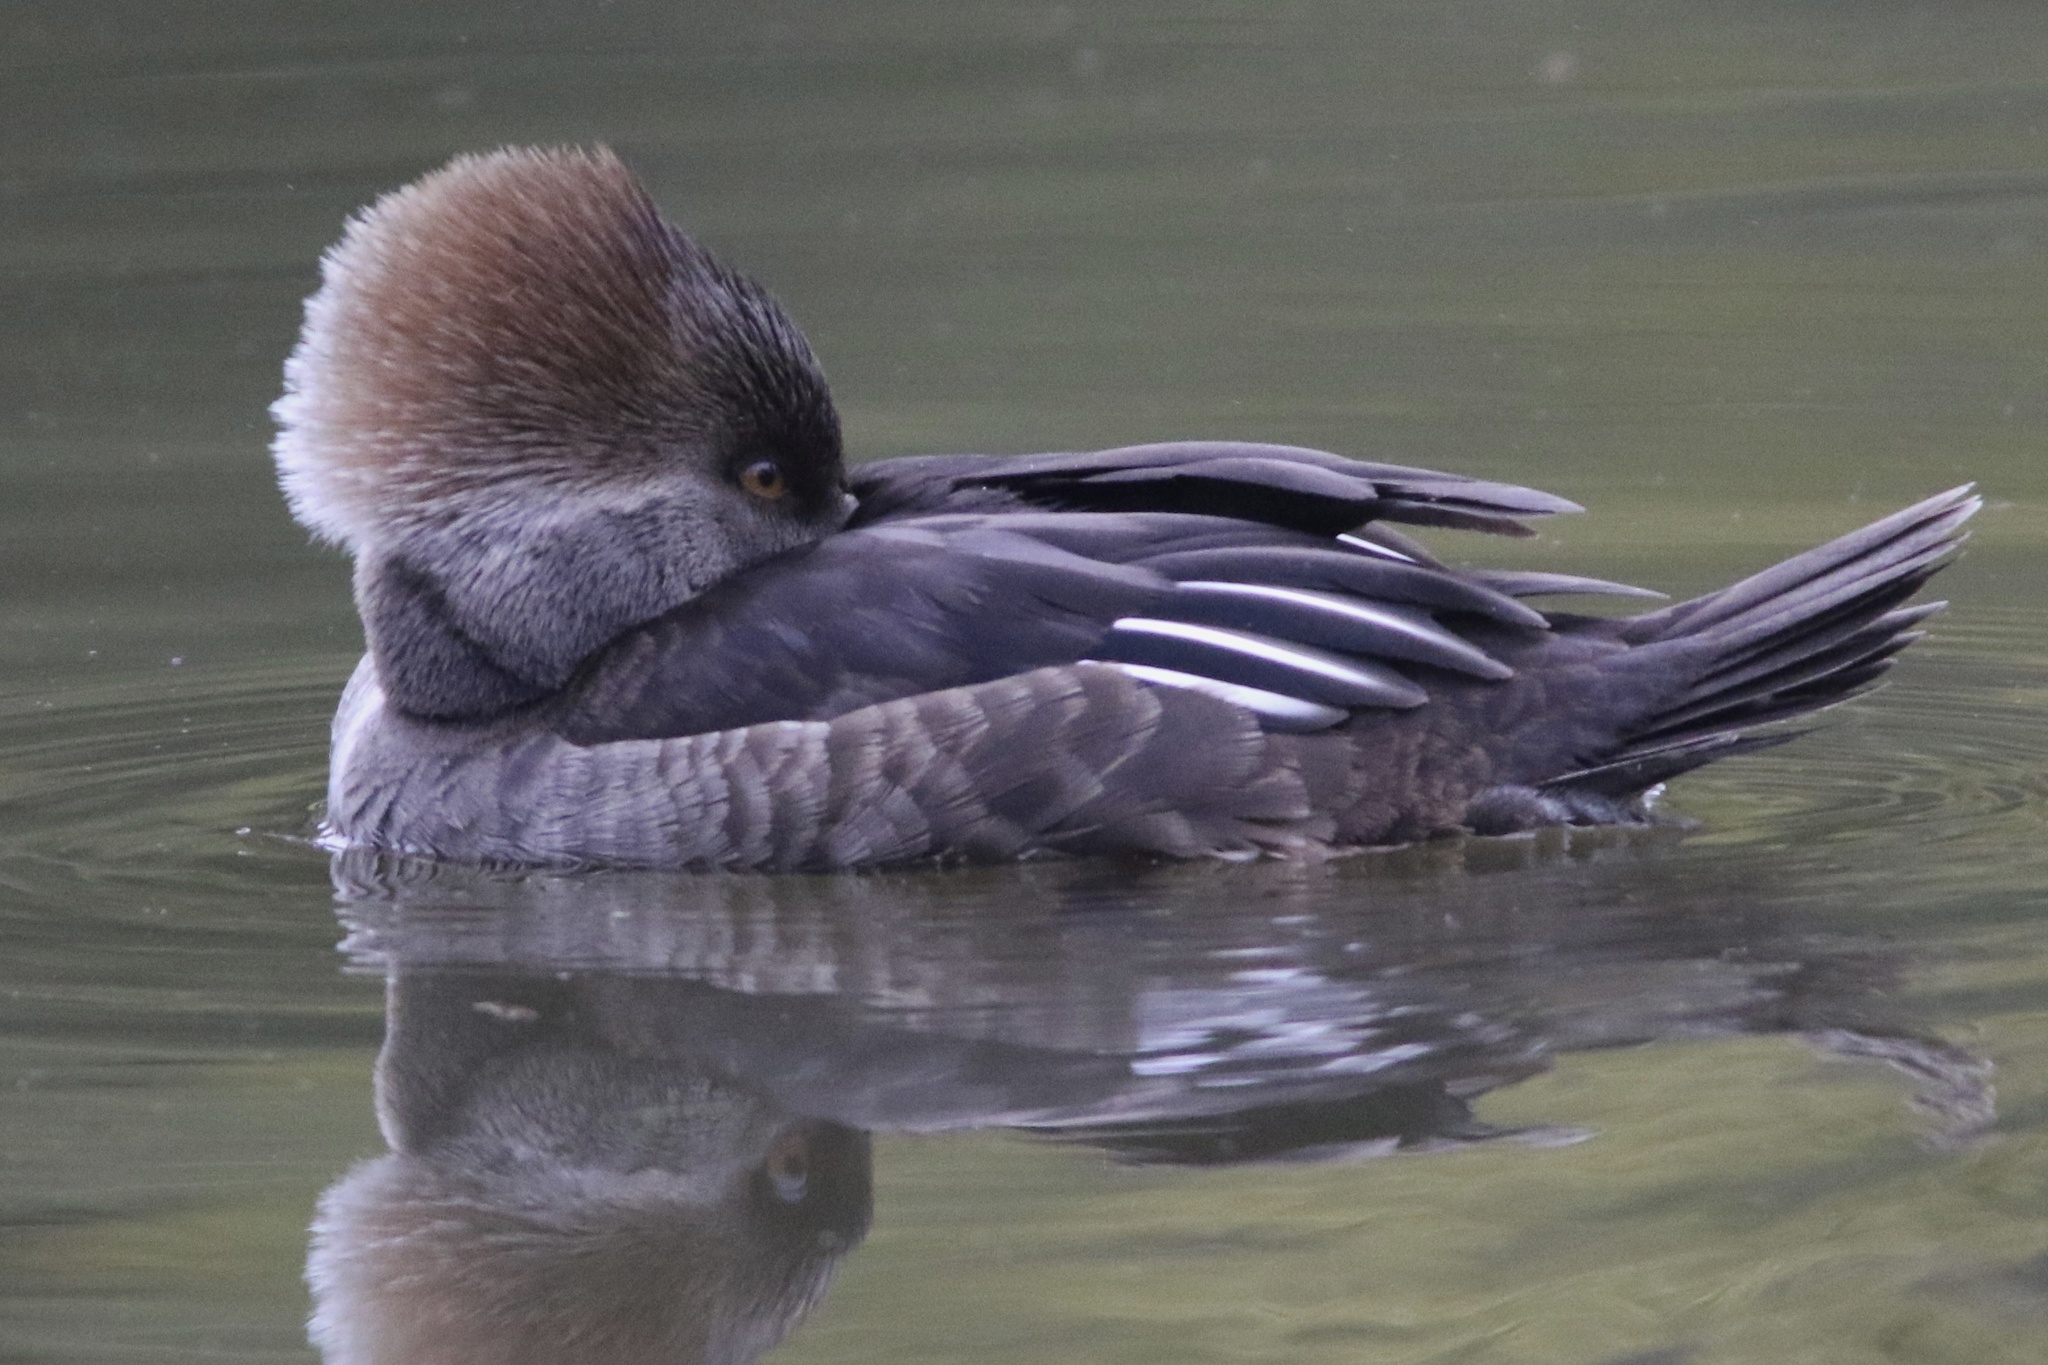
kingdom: Animalia
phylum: Chordata
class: Aves
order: Anseriformes
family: Anatidae
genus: Lophodytes
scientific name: Lophodytes cucullatus
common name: Hooded merganser
